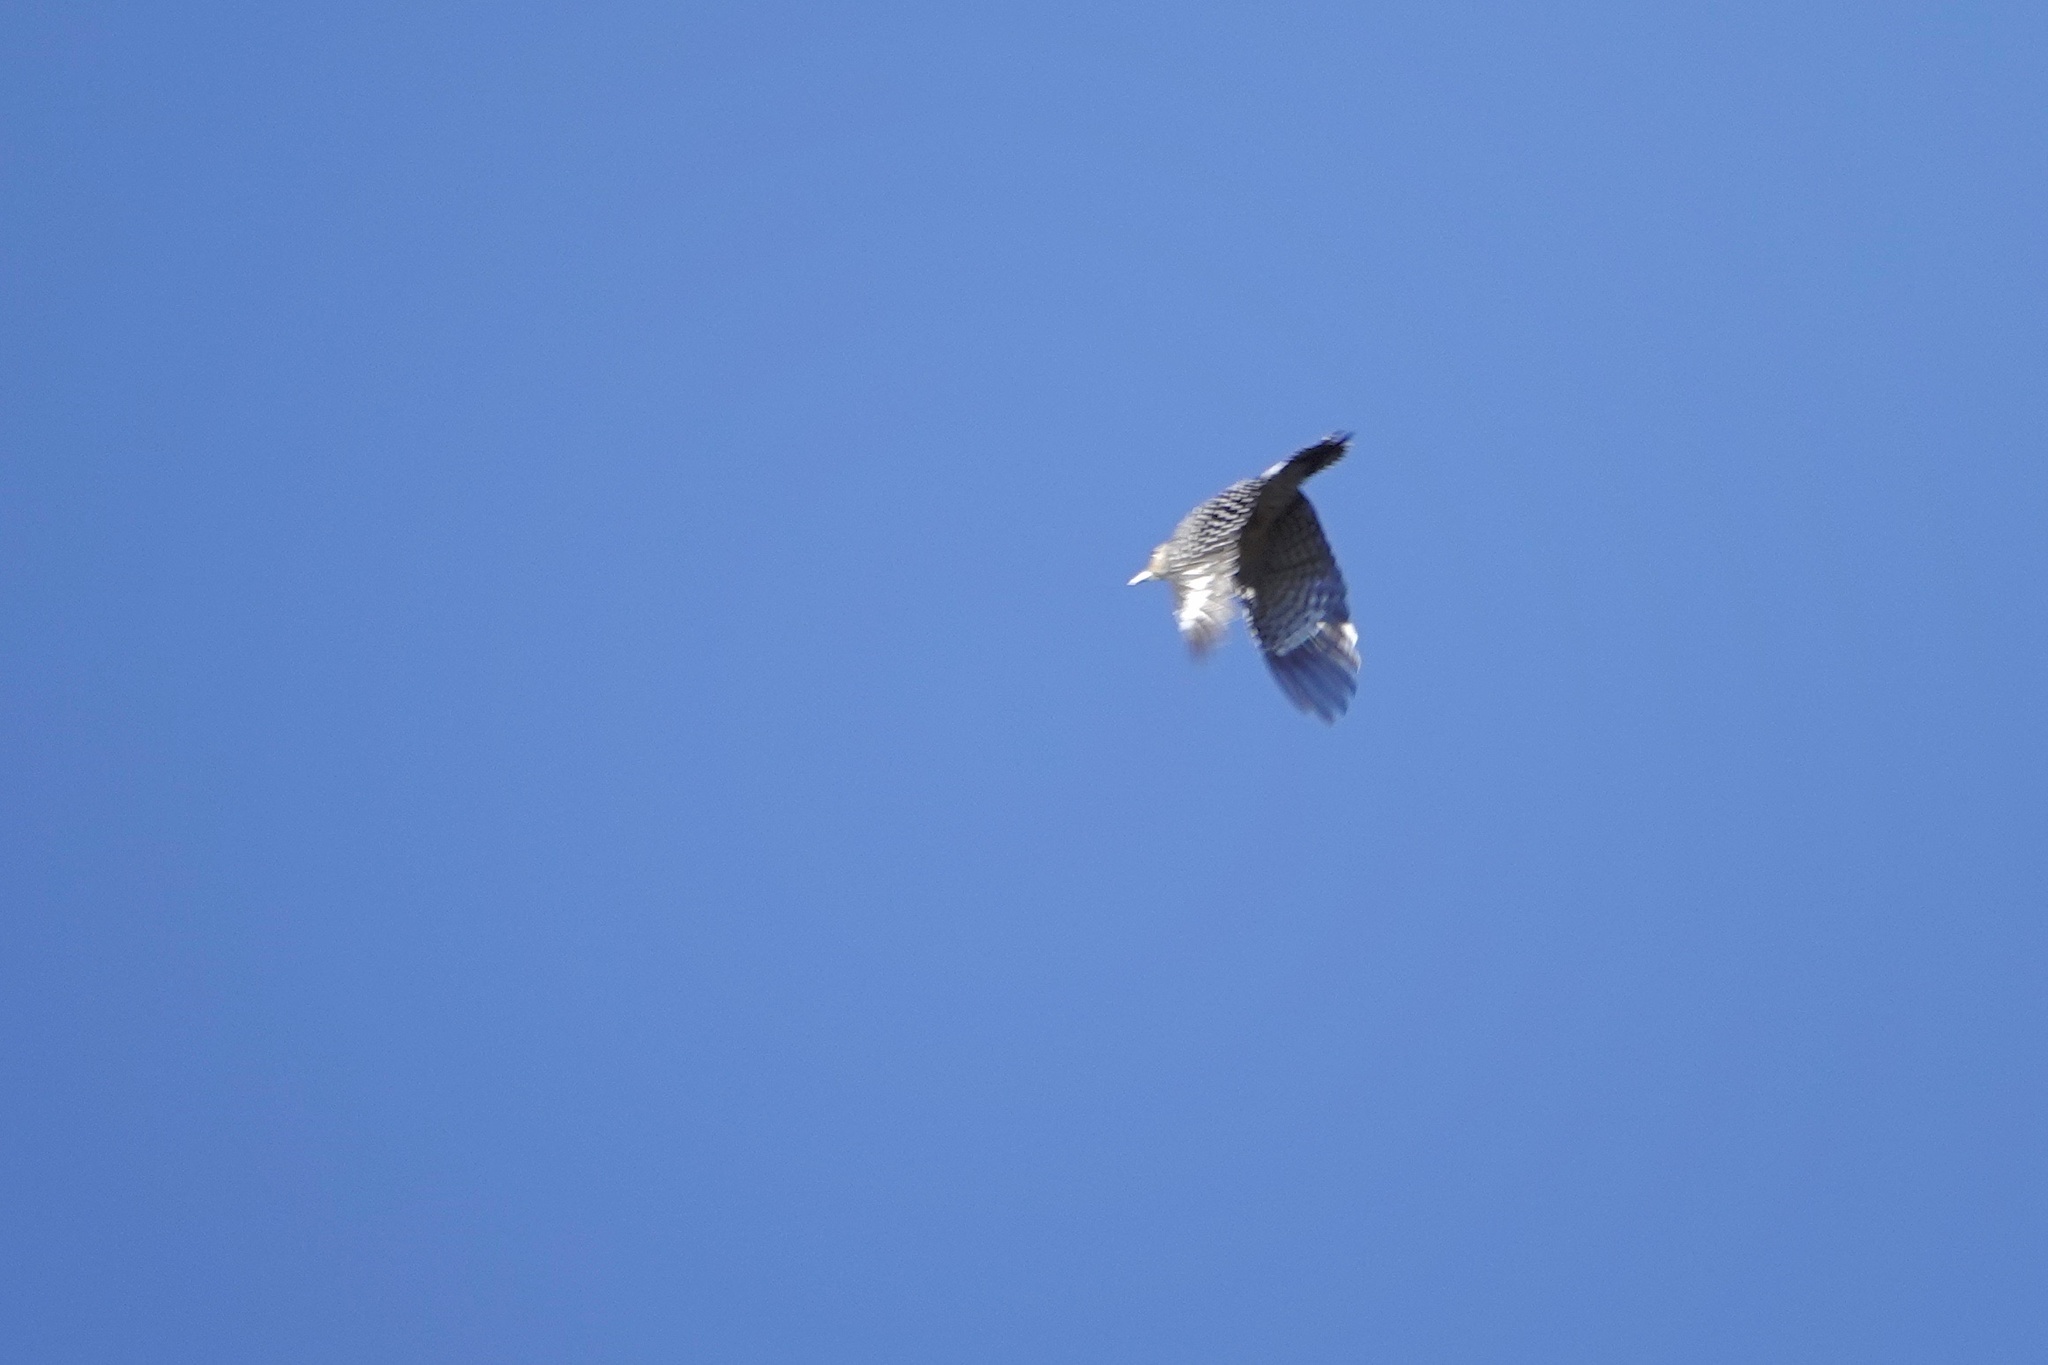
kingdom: Animalia
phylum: Chordata
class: Aves
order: Piciformes
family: Picidae
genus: Melanerpes
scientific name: Melanerpes carolinus
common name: Red-bellied woodpecker
